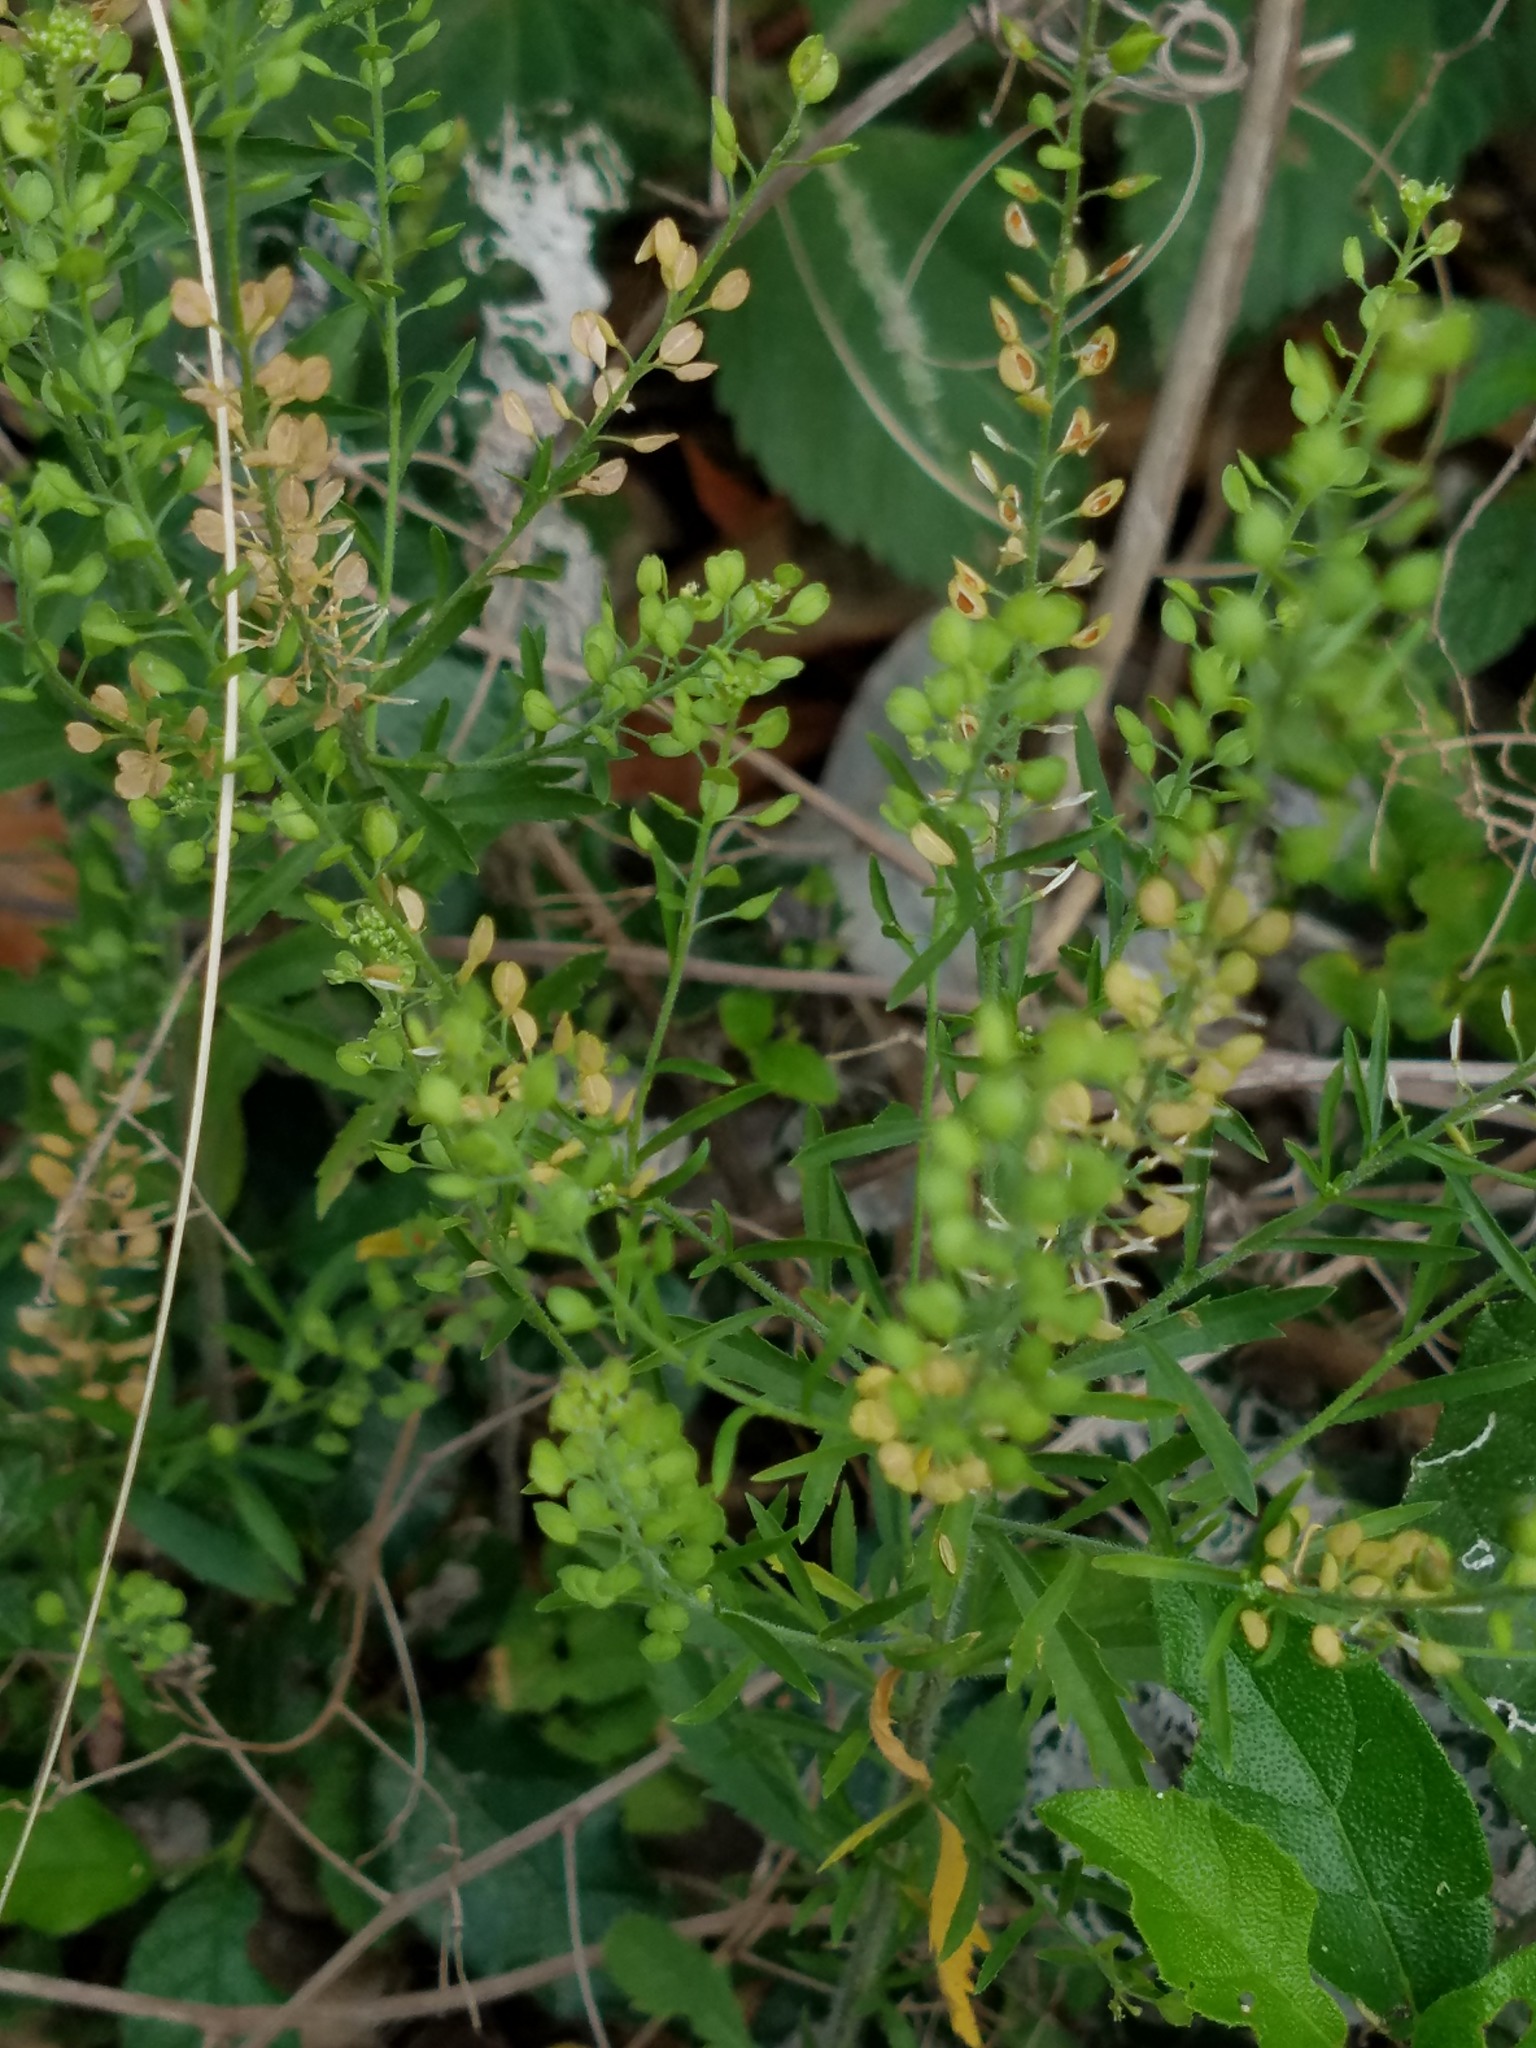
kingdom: Plantae
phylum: Tracheophyta
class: Magnoliopsida
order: Brassicales
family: Brassicaceae
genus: Lepidium
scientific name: Lepidium austrinum
